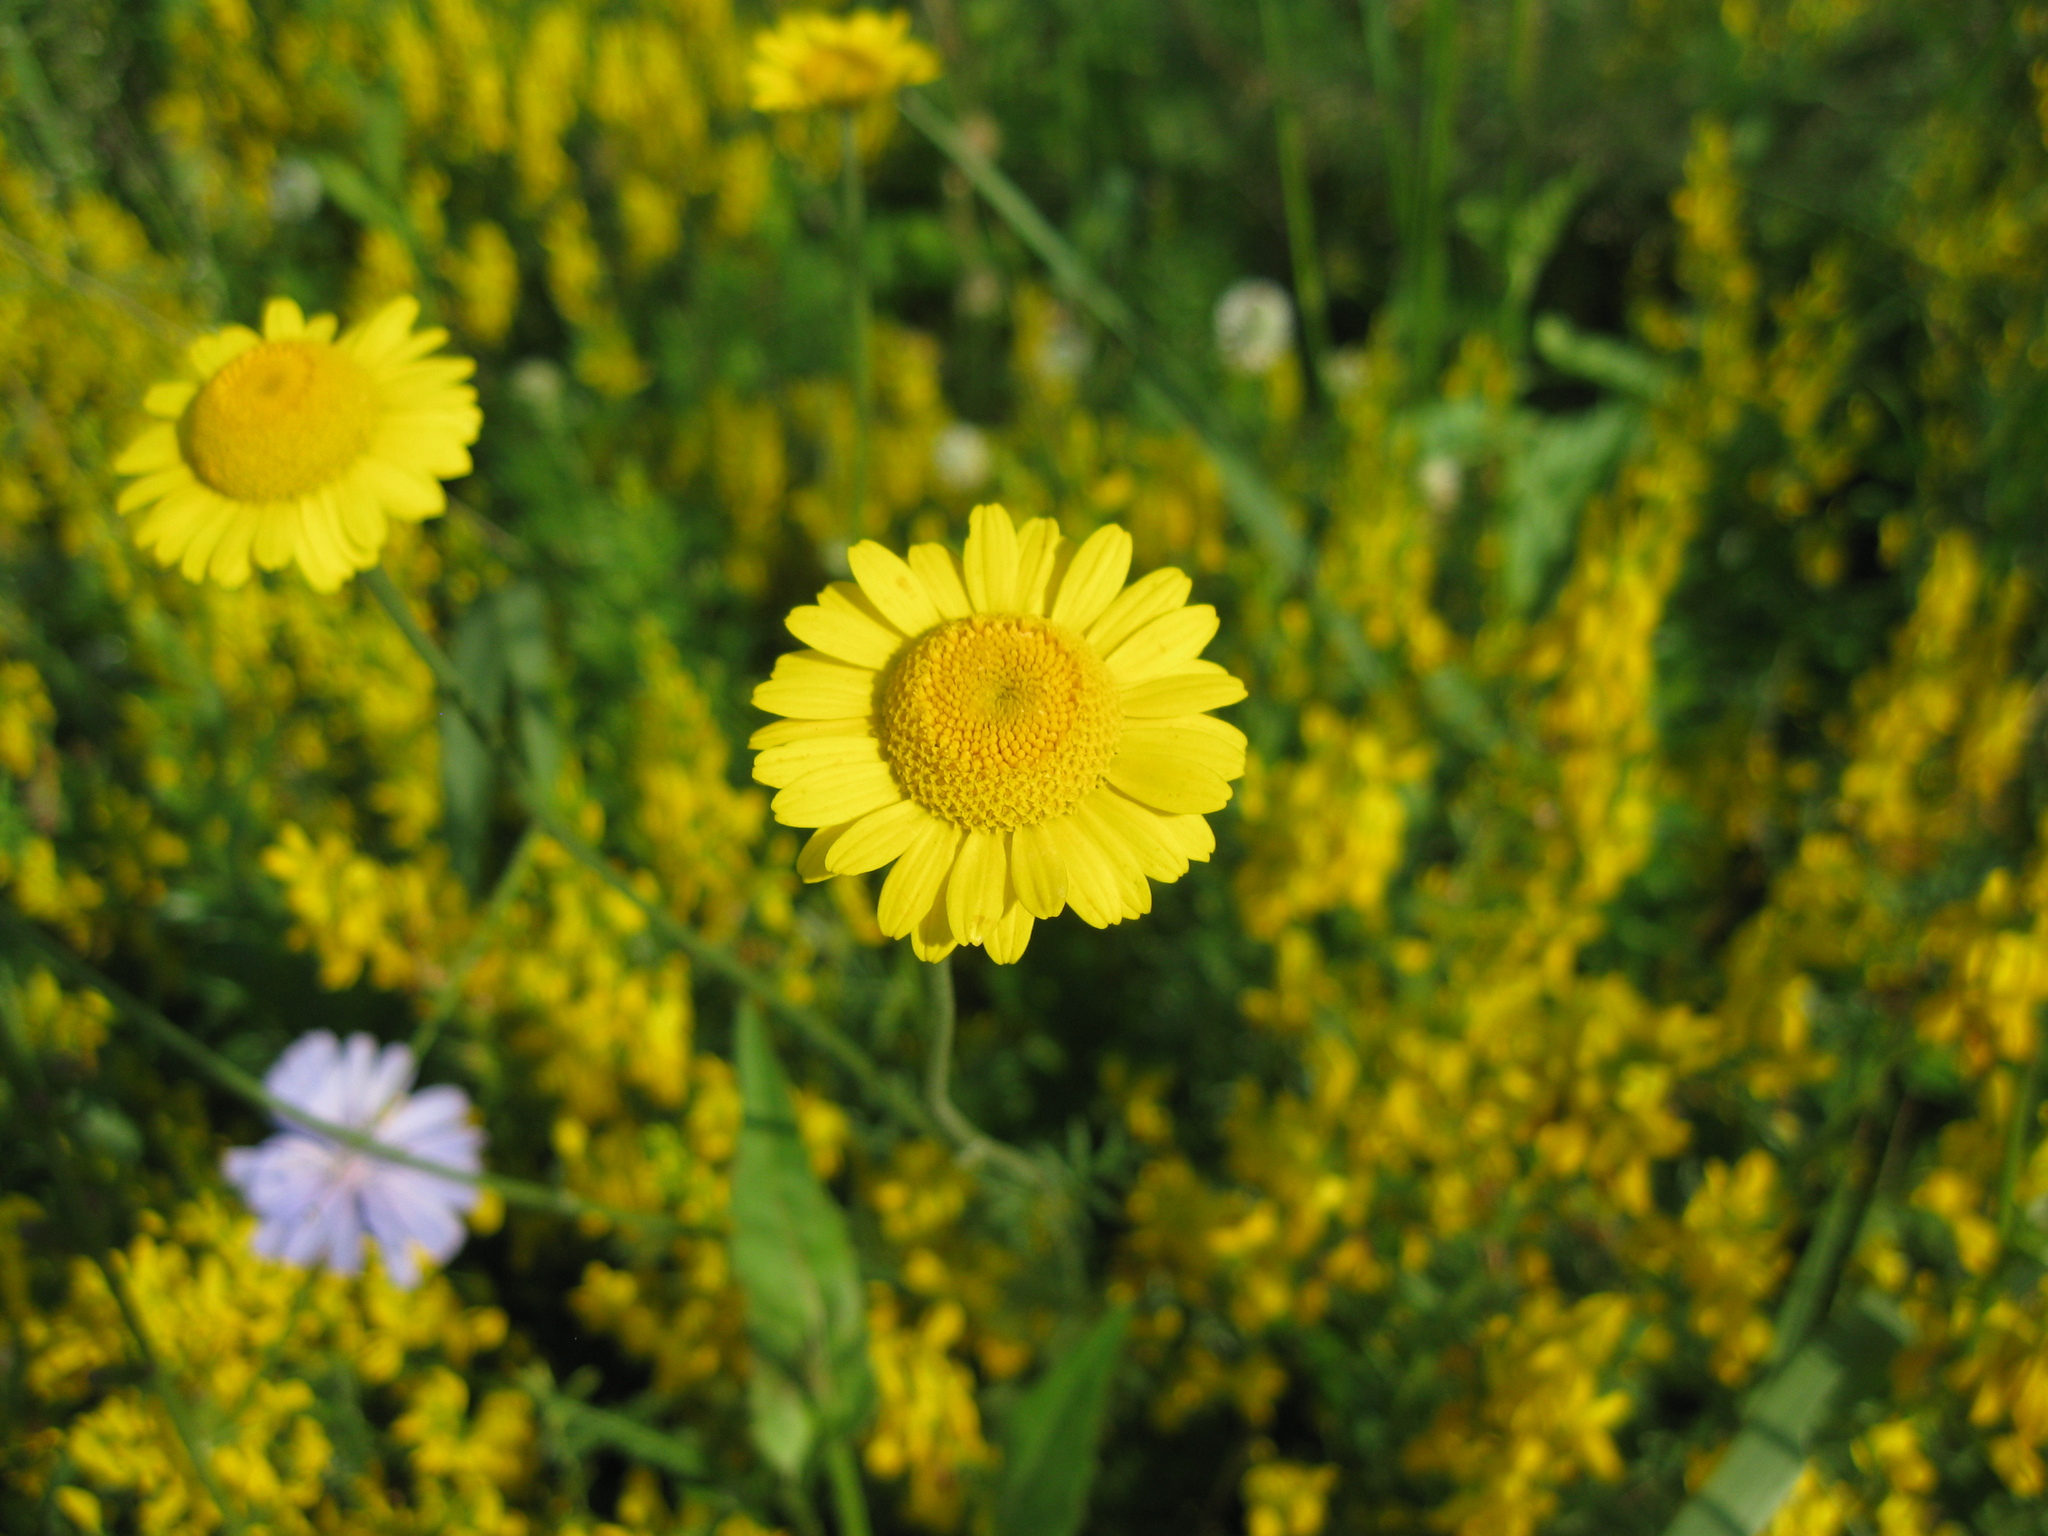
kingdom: Plantae
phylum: Tracheophyta
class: Magnoliopsida
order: Asterales
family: Asteraceae
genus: Cota
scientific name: Cota tinctoria
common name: Golden chamomile
